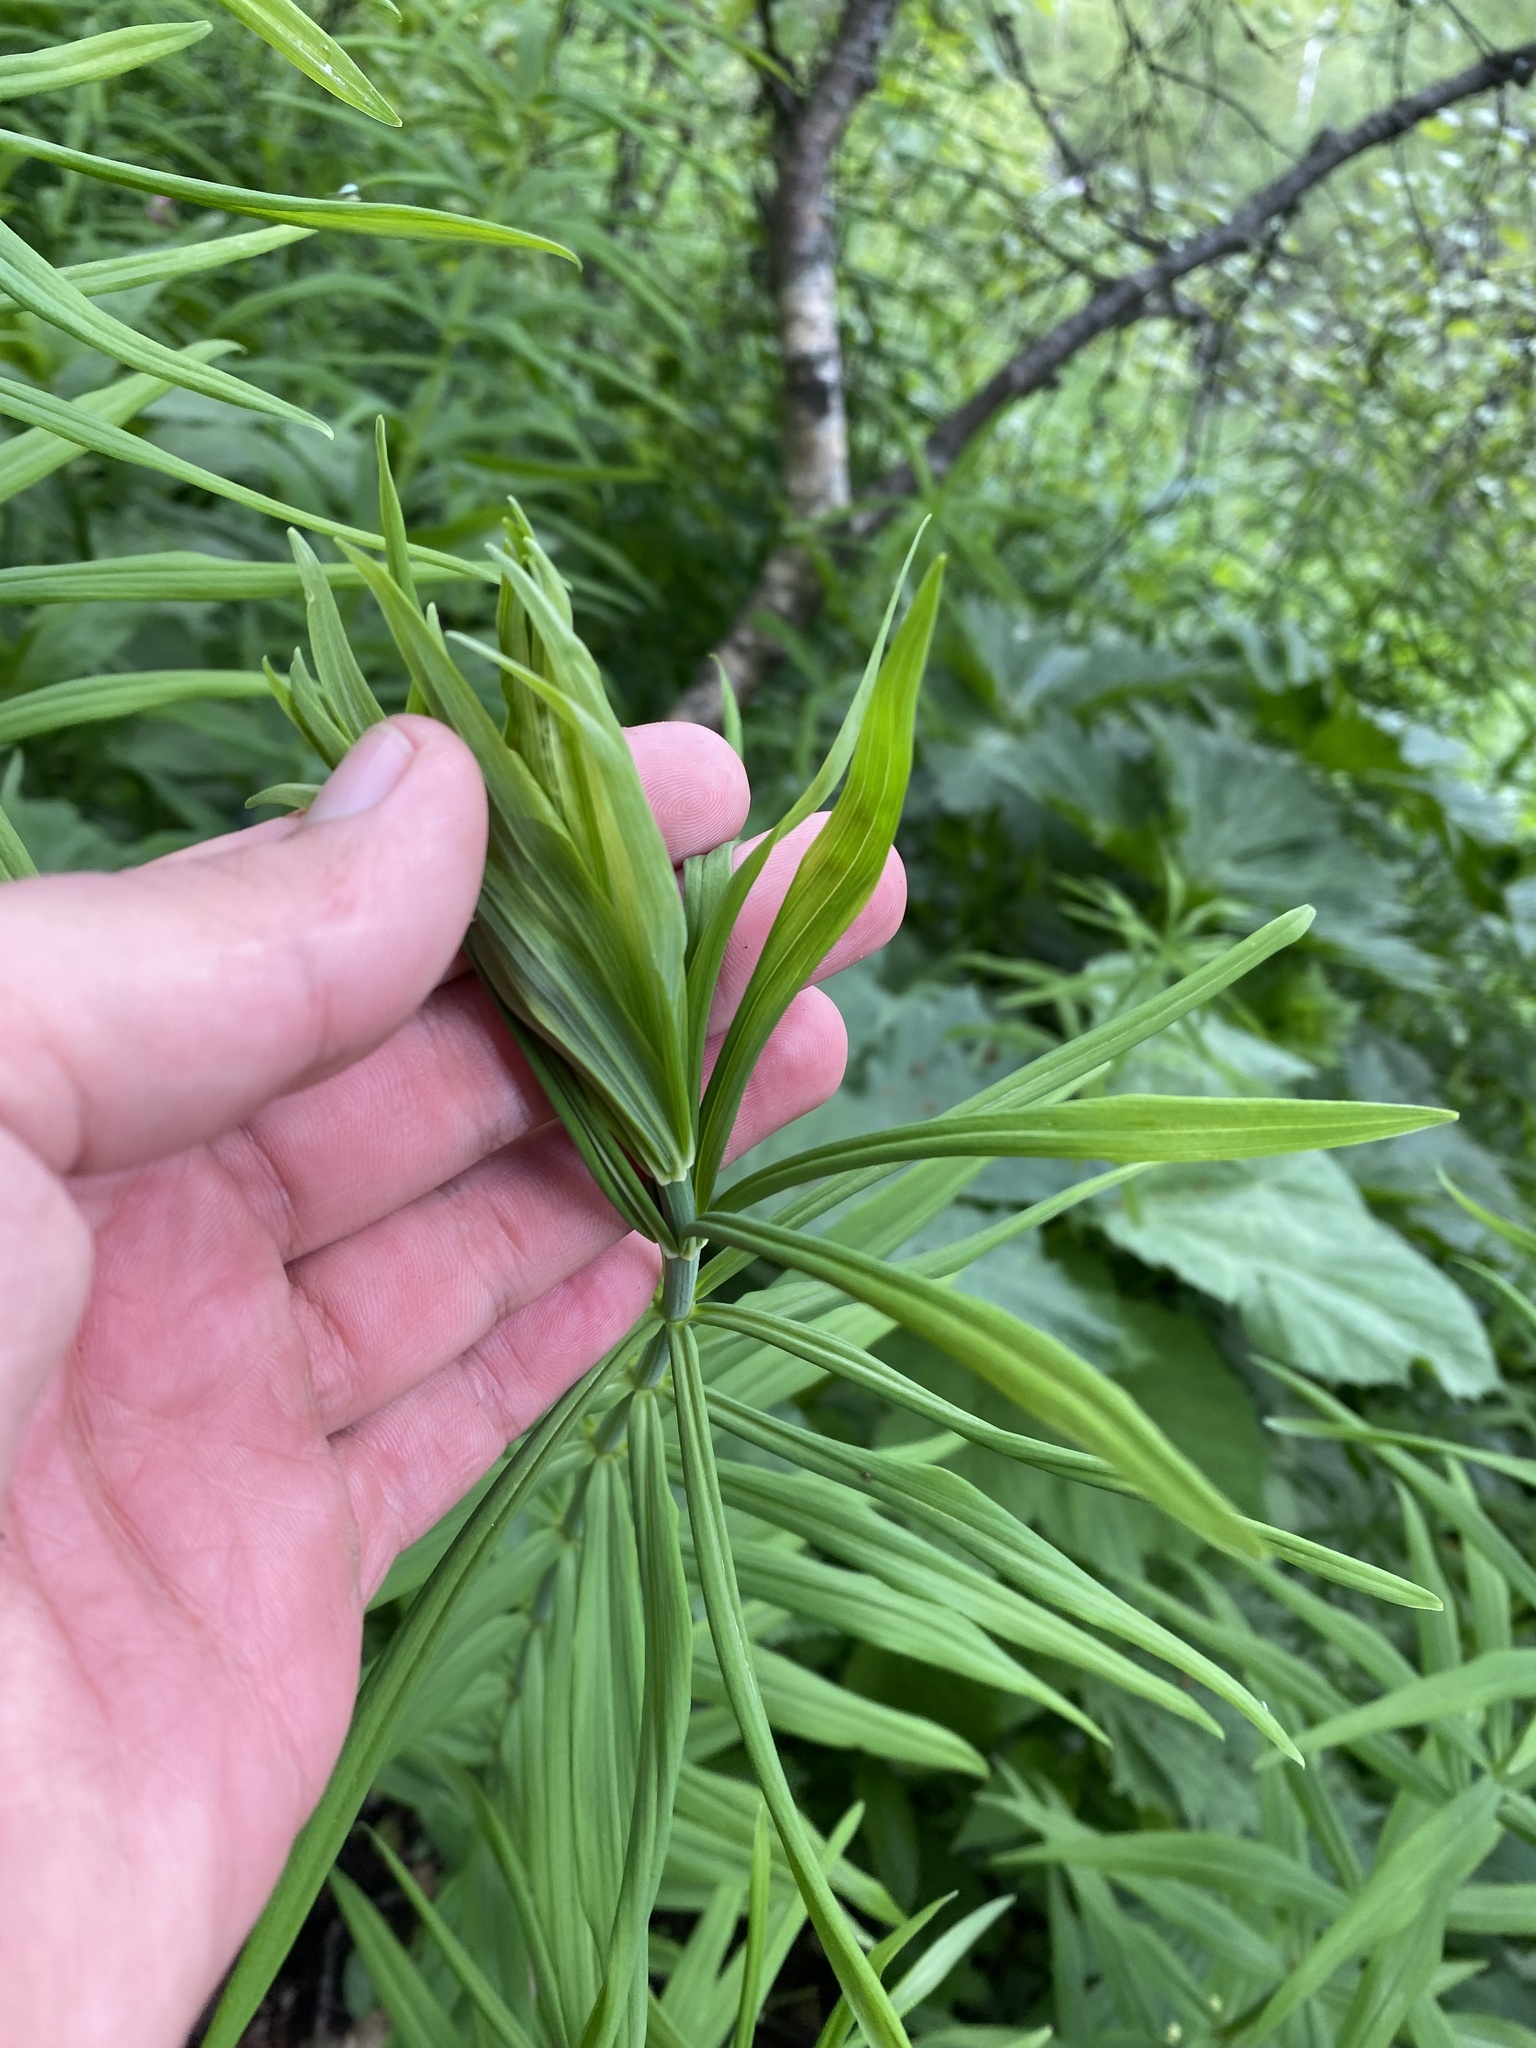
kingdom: Plantae
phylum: Tracheophyta
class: Liliopsida
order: Asparagales
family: Asparagaceae
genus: Polygonatum
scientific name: Polygonatum verticillatum
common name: Whorled solomon's-seal
